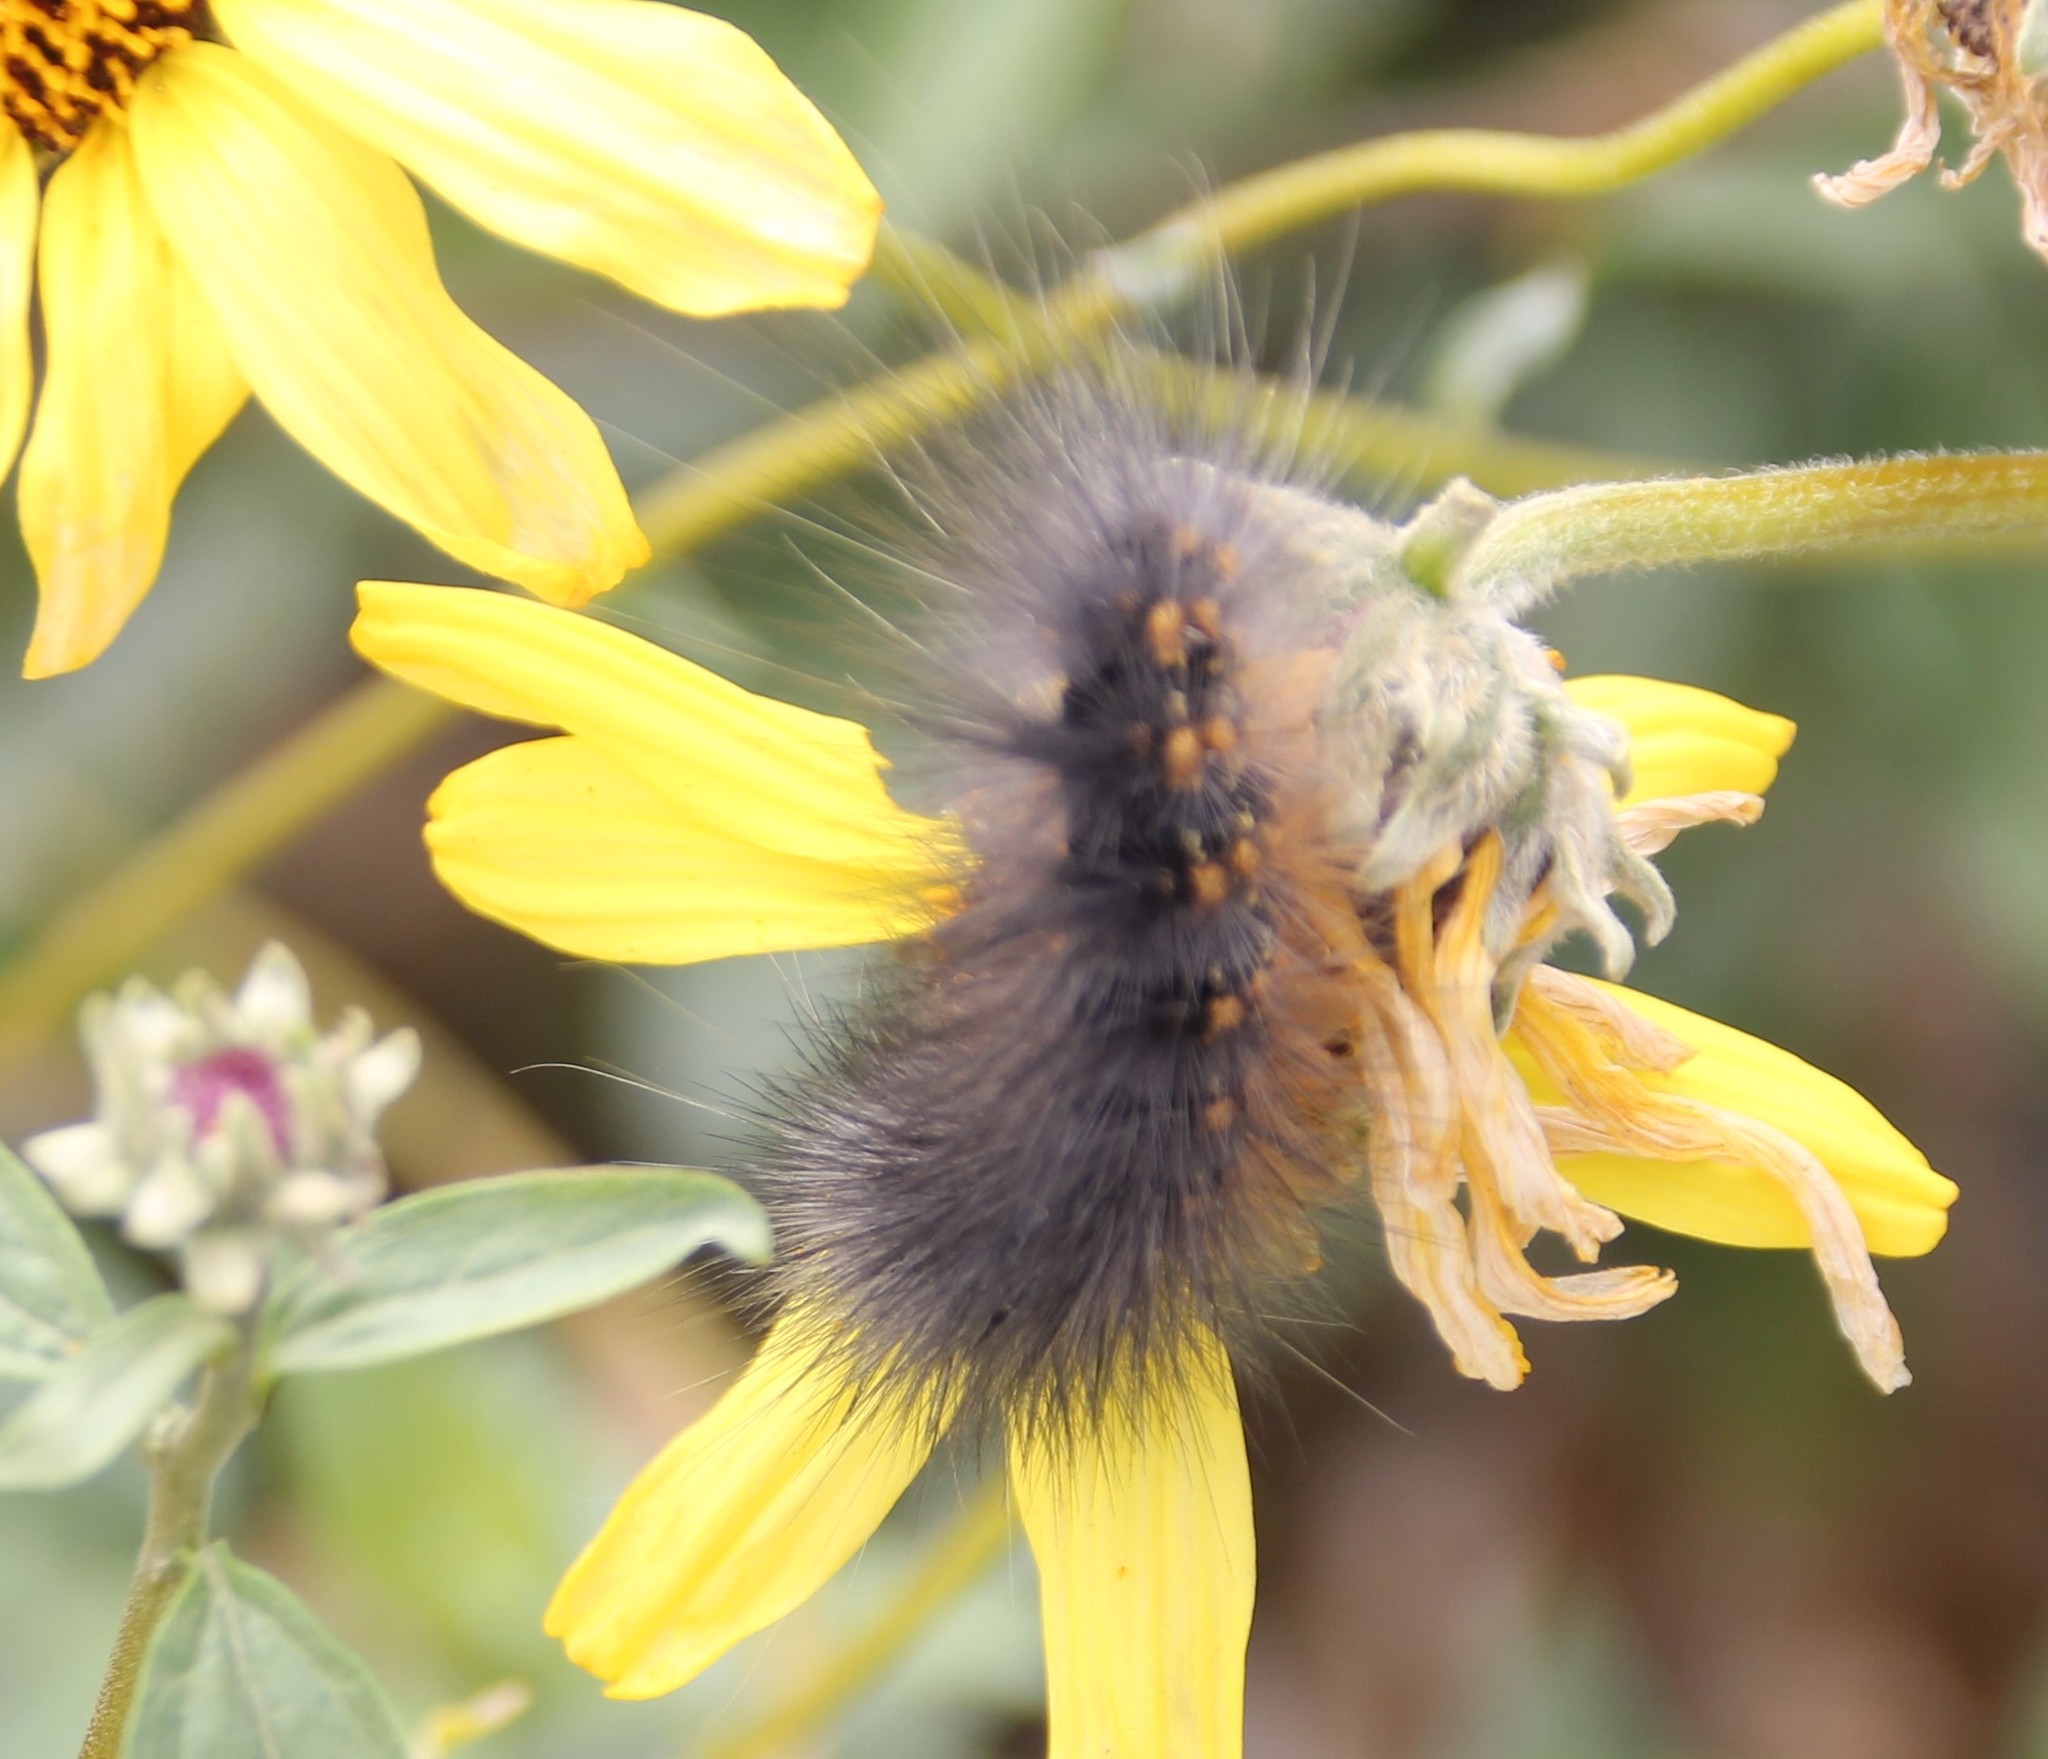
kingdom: Animalia
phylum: Arthropoda
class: Insecta
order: Lepidoptera
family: Erebidae
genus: Estigmene
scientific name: Estigmene acrea
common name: Salt marsh moth
